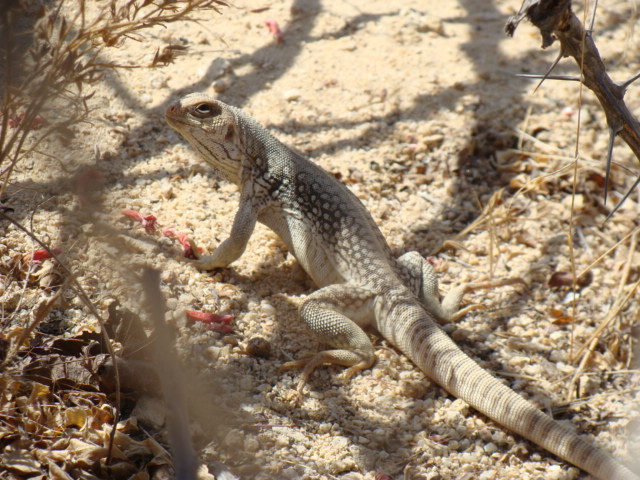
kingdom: Animalia
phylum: Chordata
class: Squamata
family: Iguanidae
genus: Dipsosaurus
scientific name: Dipsosaurus dorsalis
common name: Desert iguana
